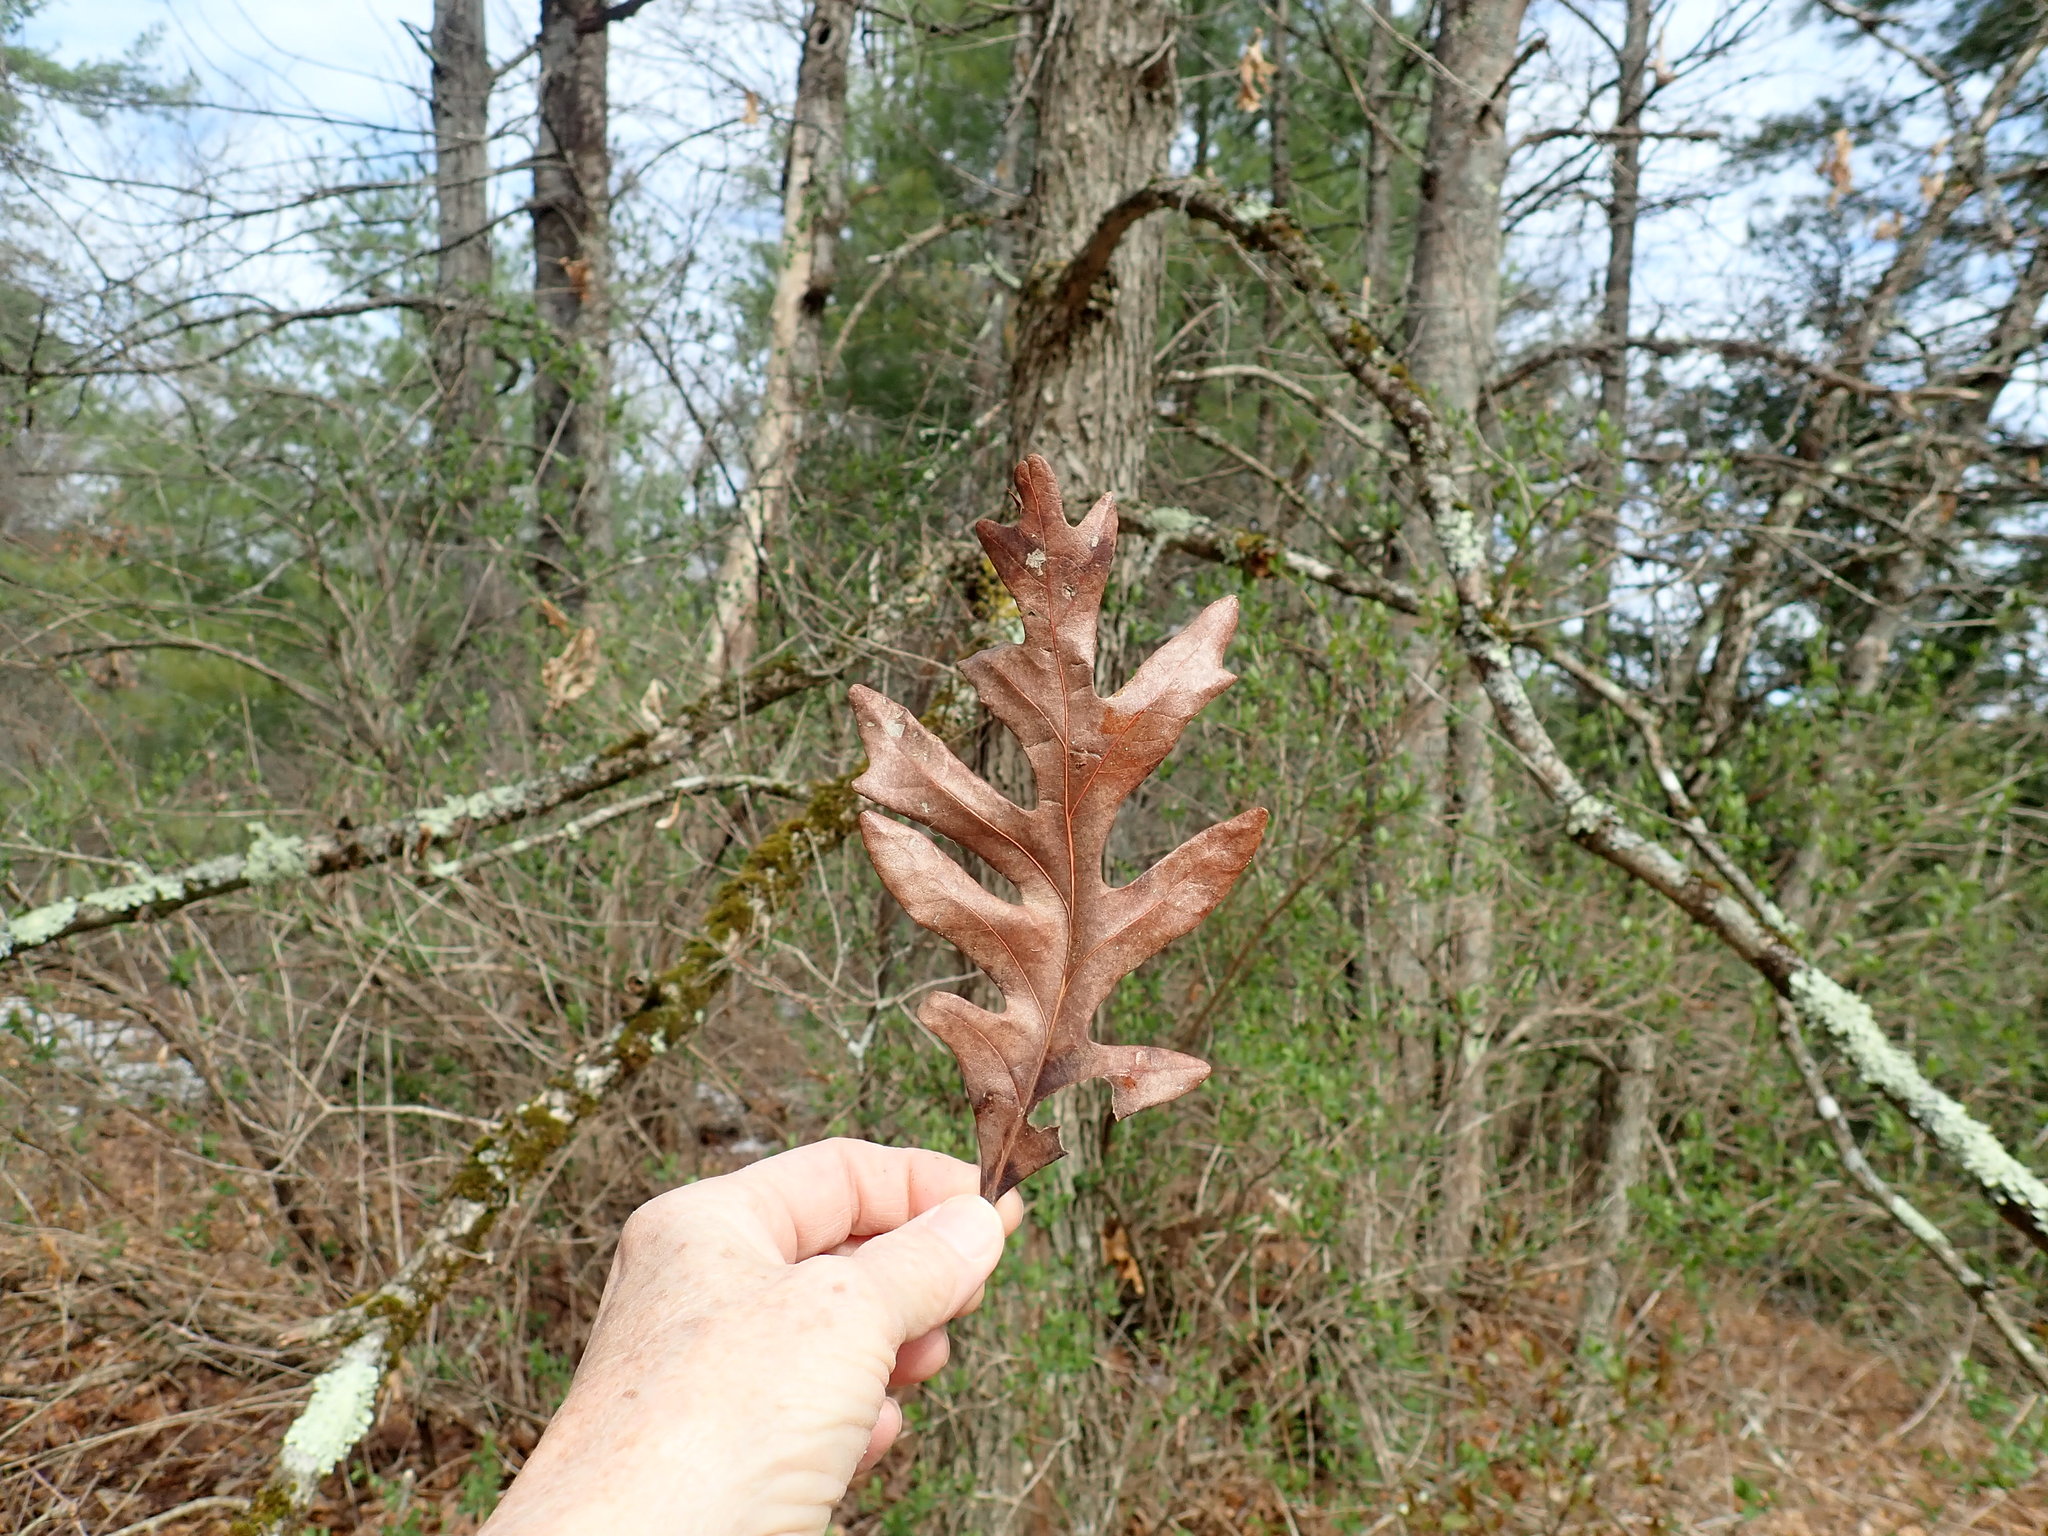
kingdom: Plantae
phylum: Tracheophyta
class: Magnoliopsida
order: Fagales
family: Fagaceae
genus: Quercus
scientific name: Quercus alba
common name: White oak
